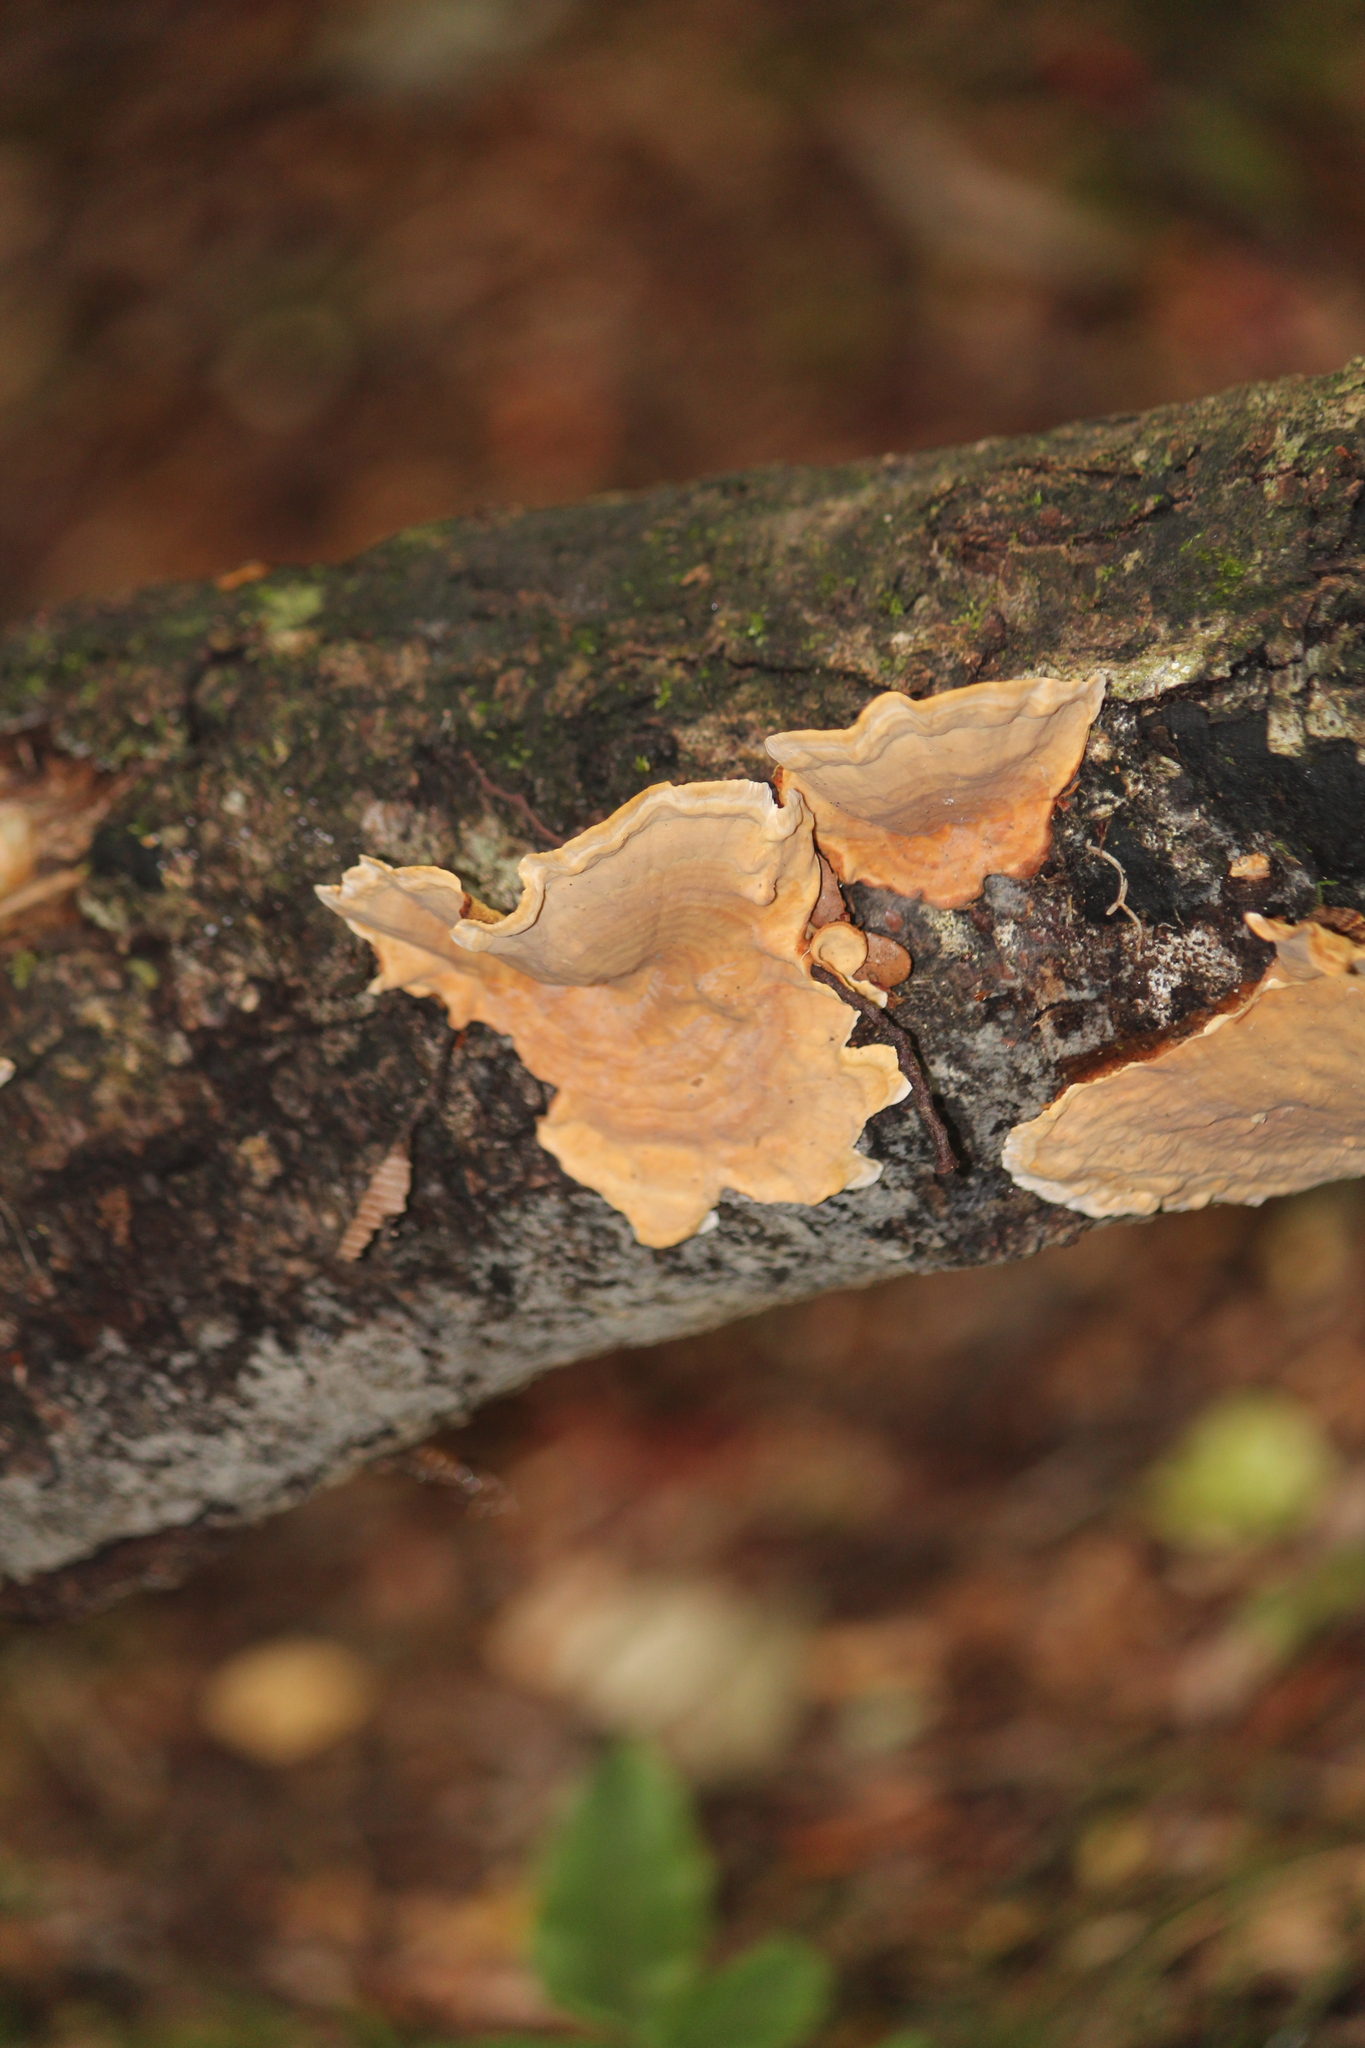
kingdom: Fungi
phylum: Basidiomycota
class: Agaricomycetes
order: Russulales
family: Stereaceae
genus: Stereum
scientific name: Stereum versicolor
